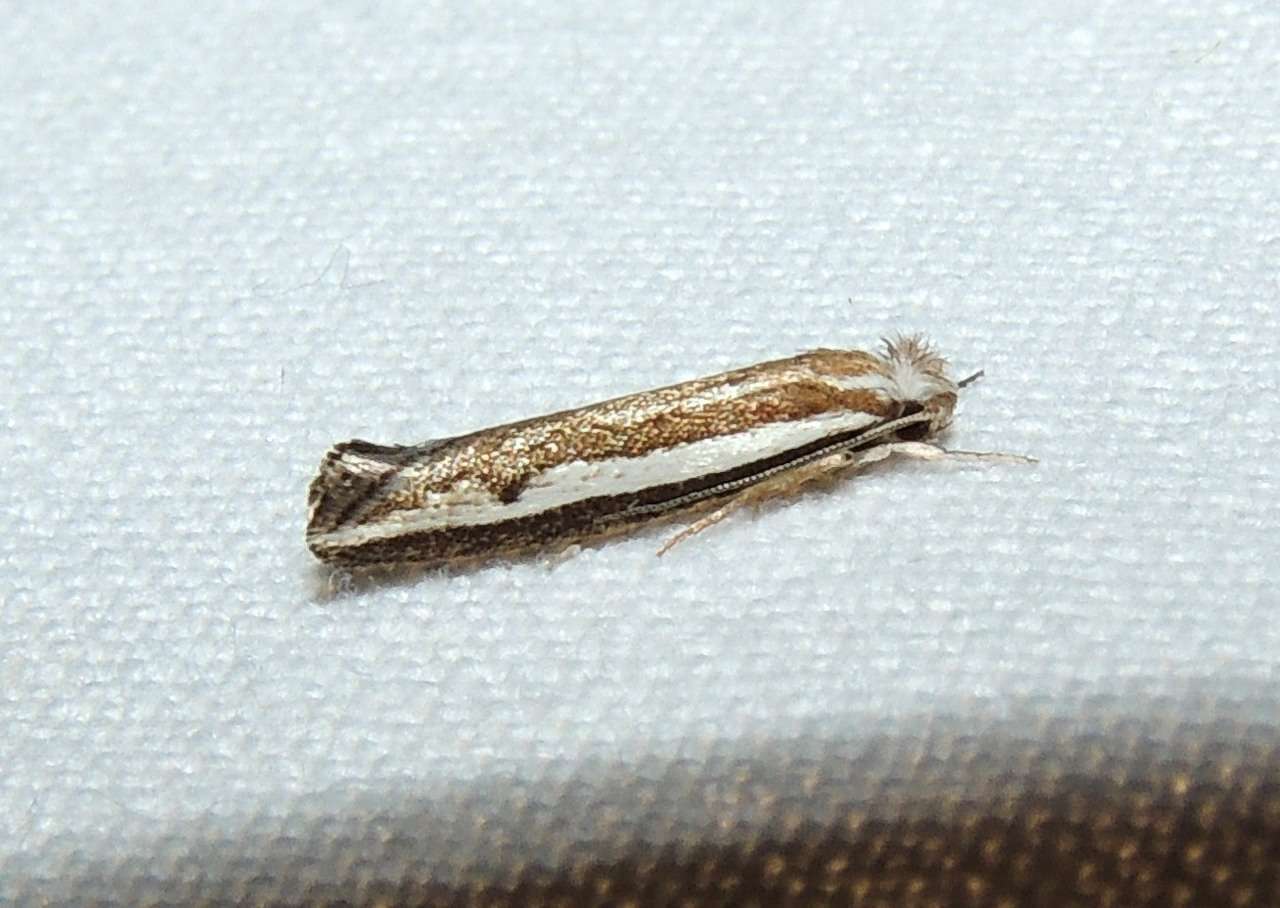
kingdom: Animalia
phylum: Arthropoda
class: Insecta
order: Lepidoptera
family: Tineidae
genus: Mimoscopa
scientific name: Mimoscopa ochetaula
